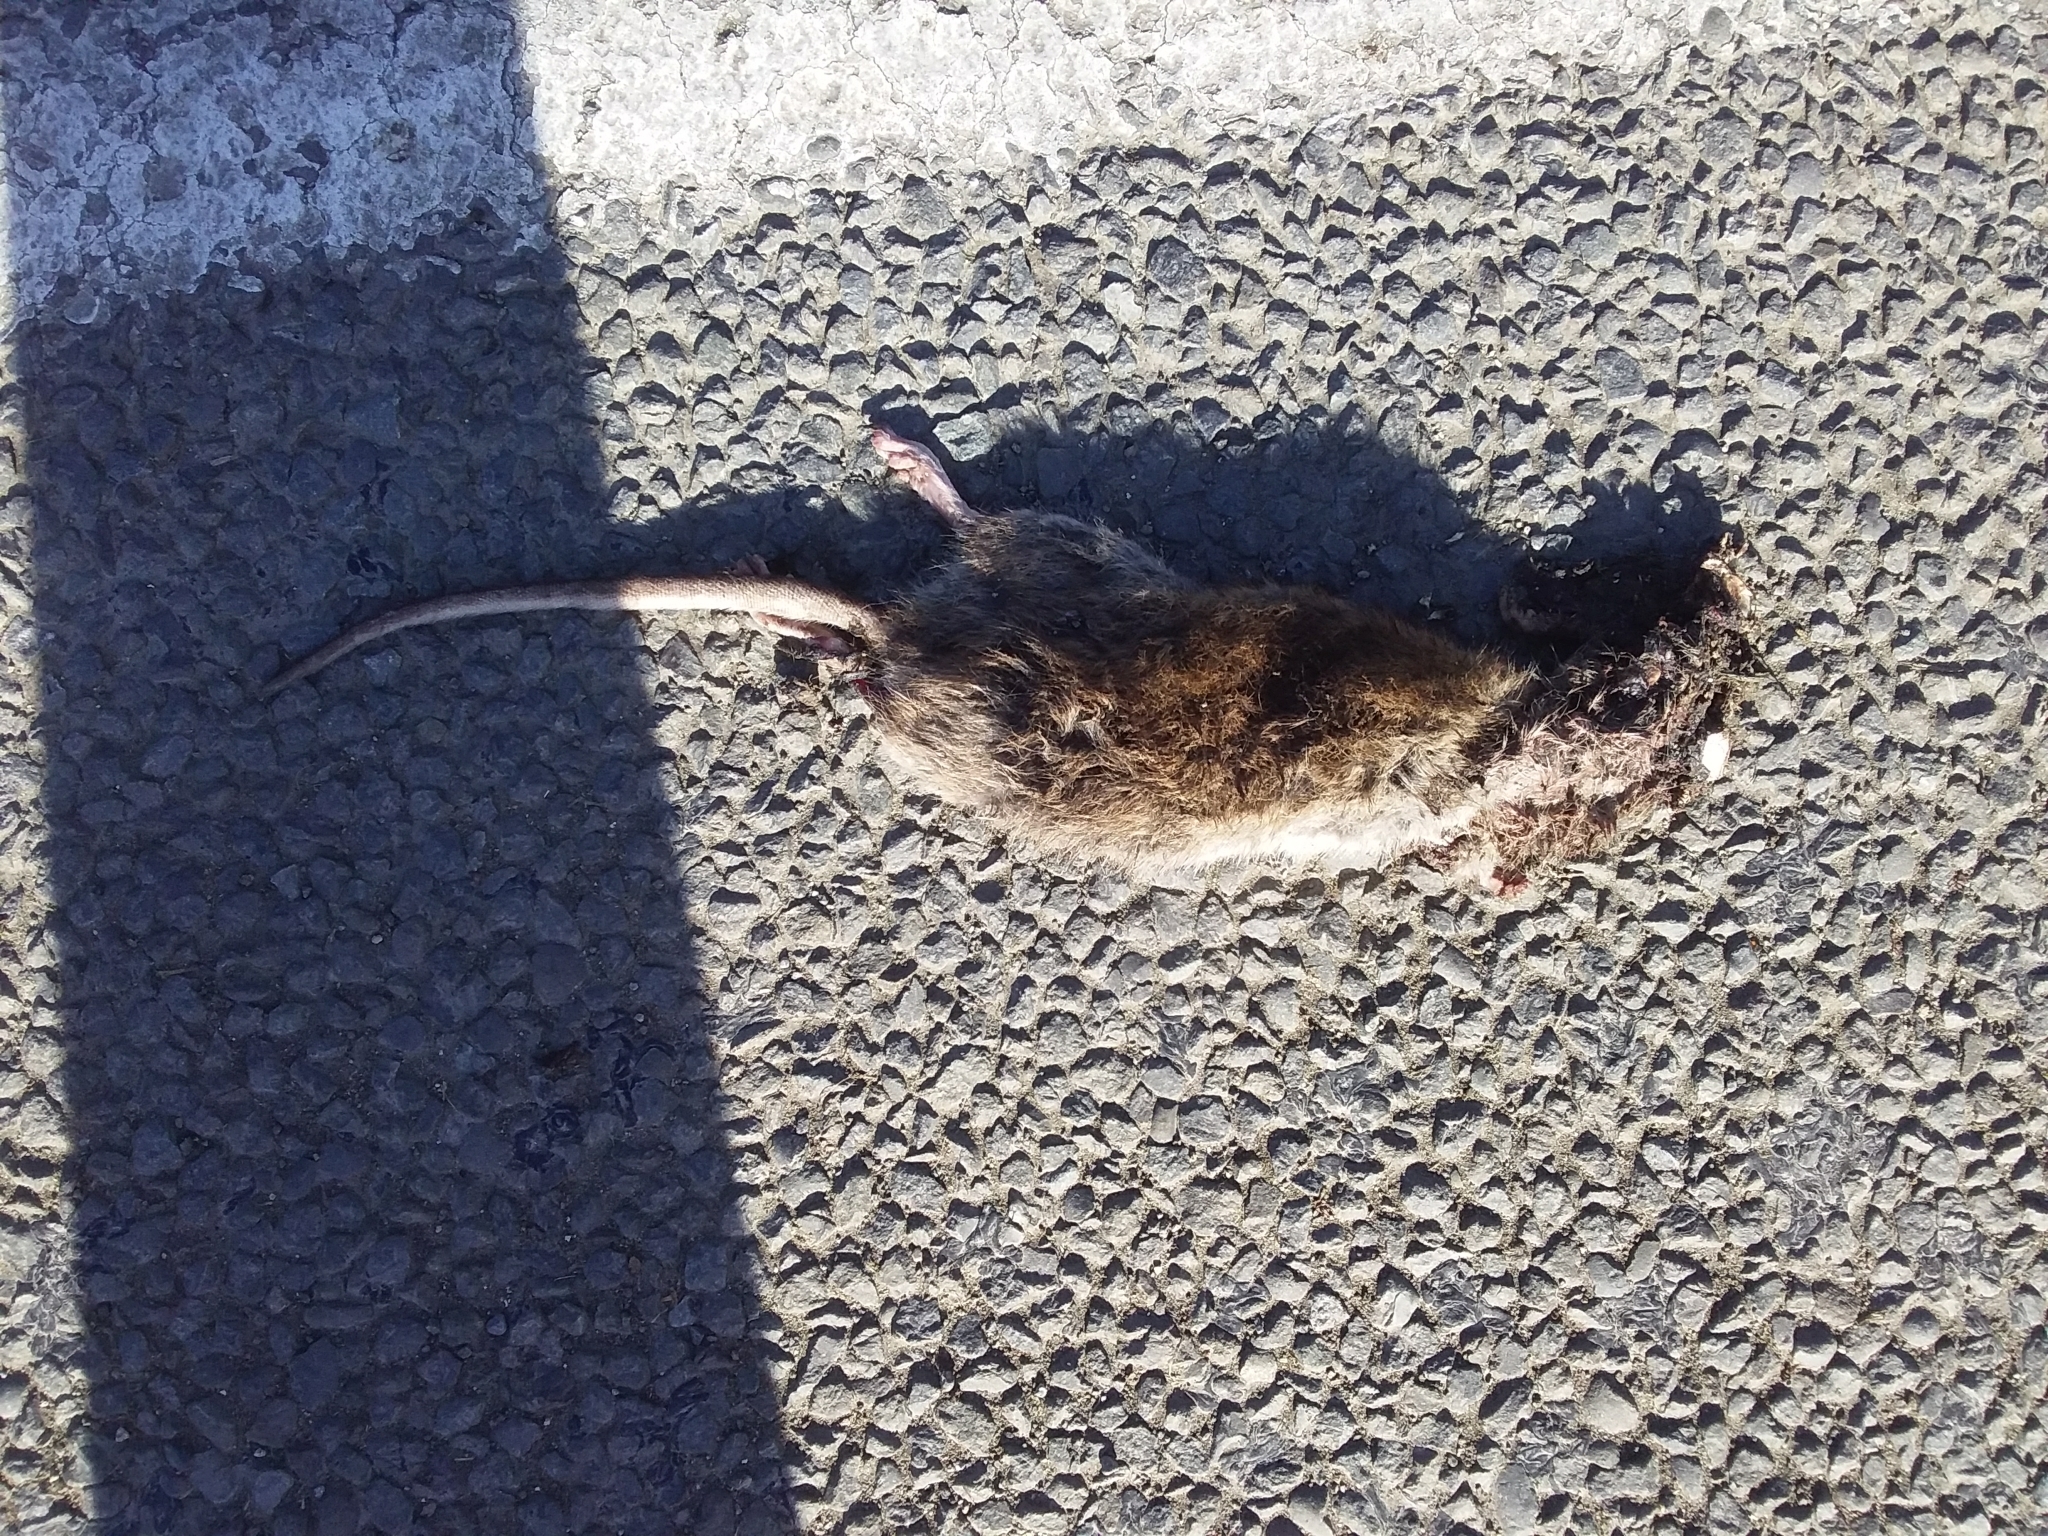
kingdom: Animalia
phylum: Chordata
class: Mammalia
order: Rodentia
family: Muridae
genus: Rattus
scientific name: Rattus norvegicus
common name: Brown rat
